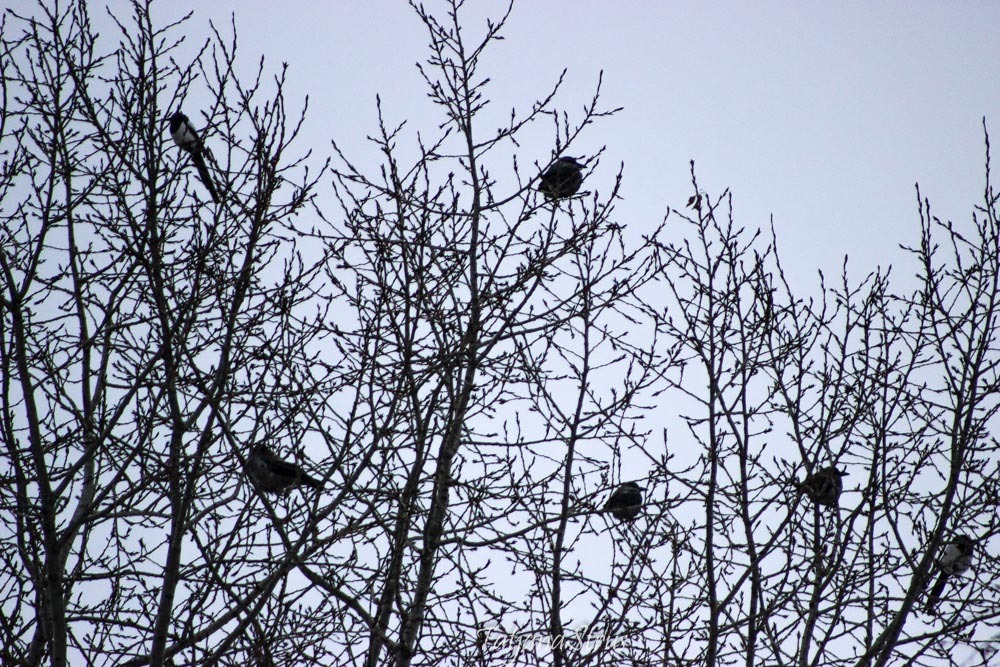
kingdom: Animalia
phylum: Chordata
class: Aves
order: Passeriformes
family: Corvidae
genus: Pica
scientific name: Pica pica
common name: Eurasian magpie
